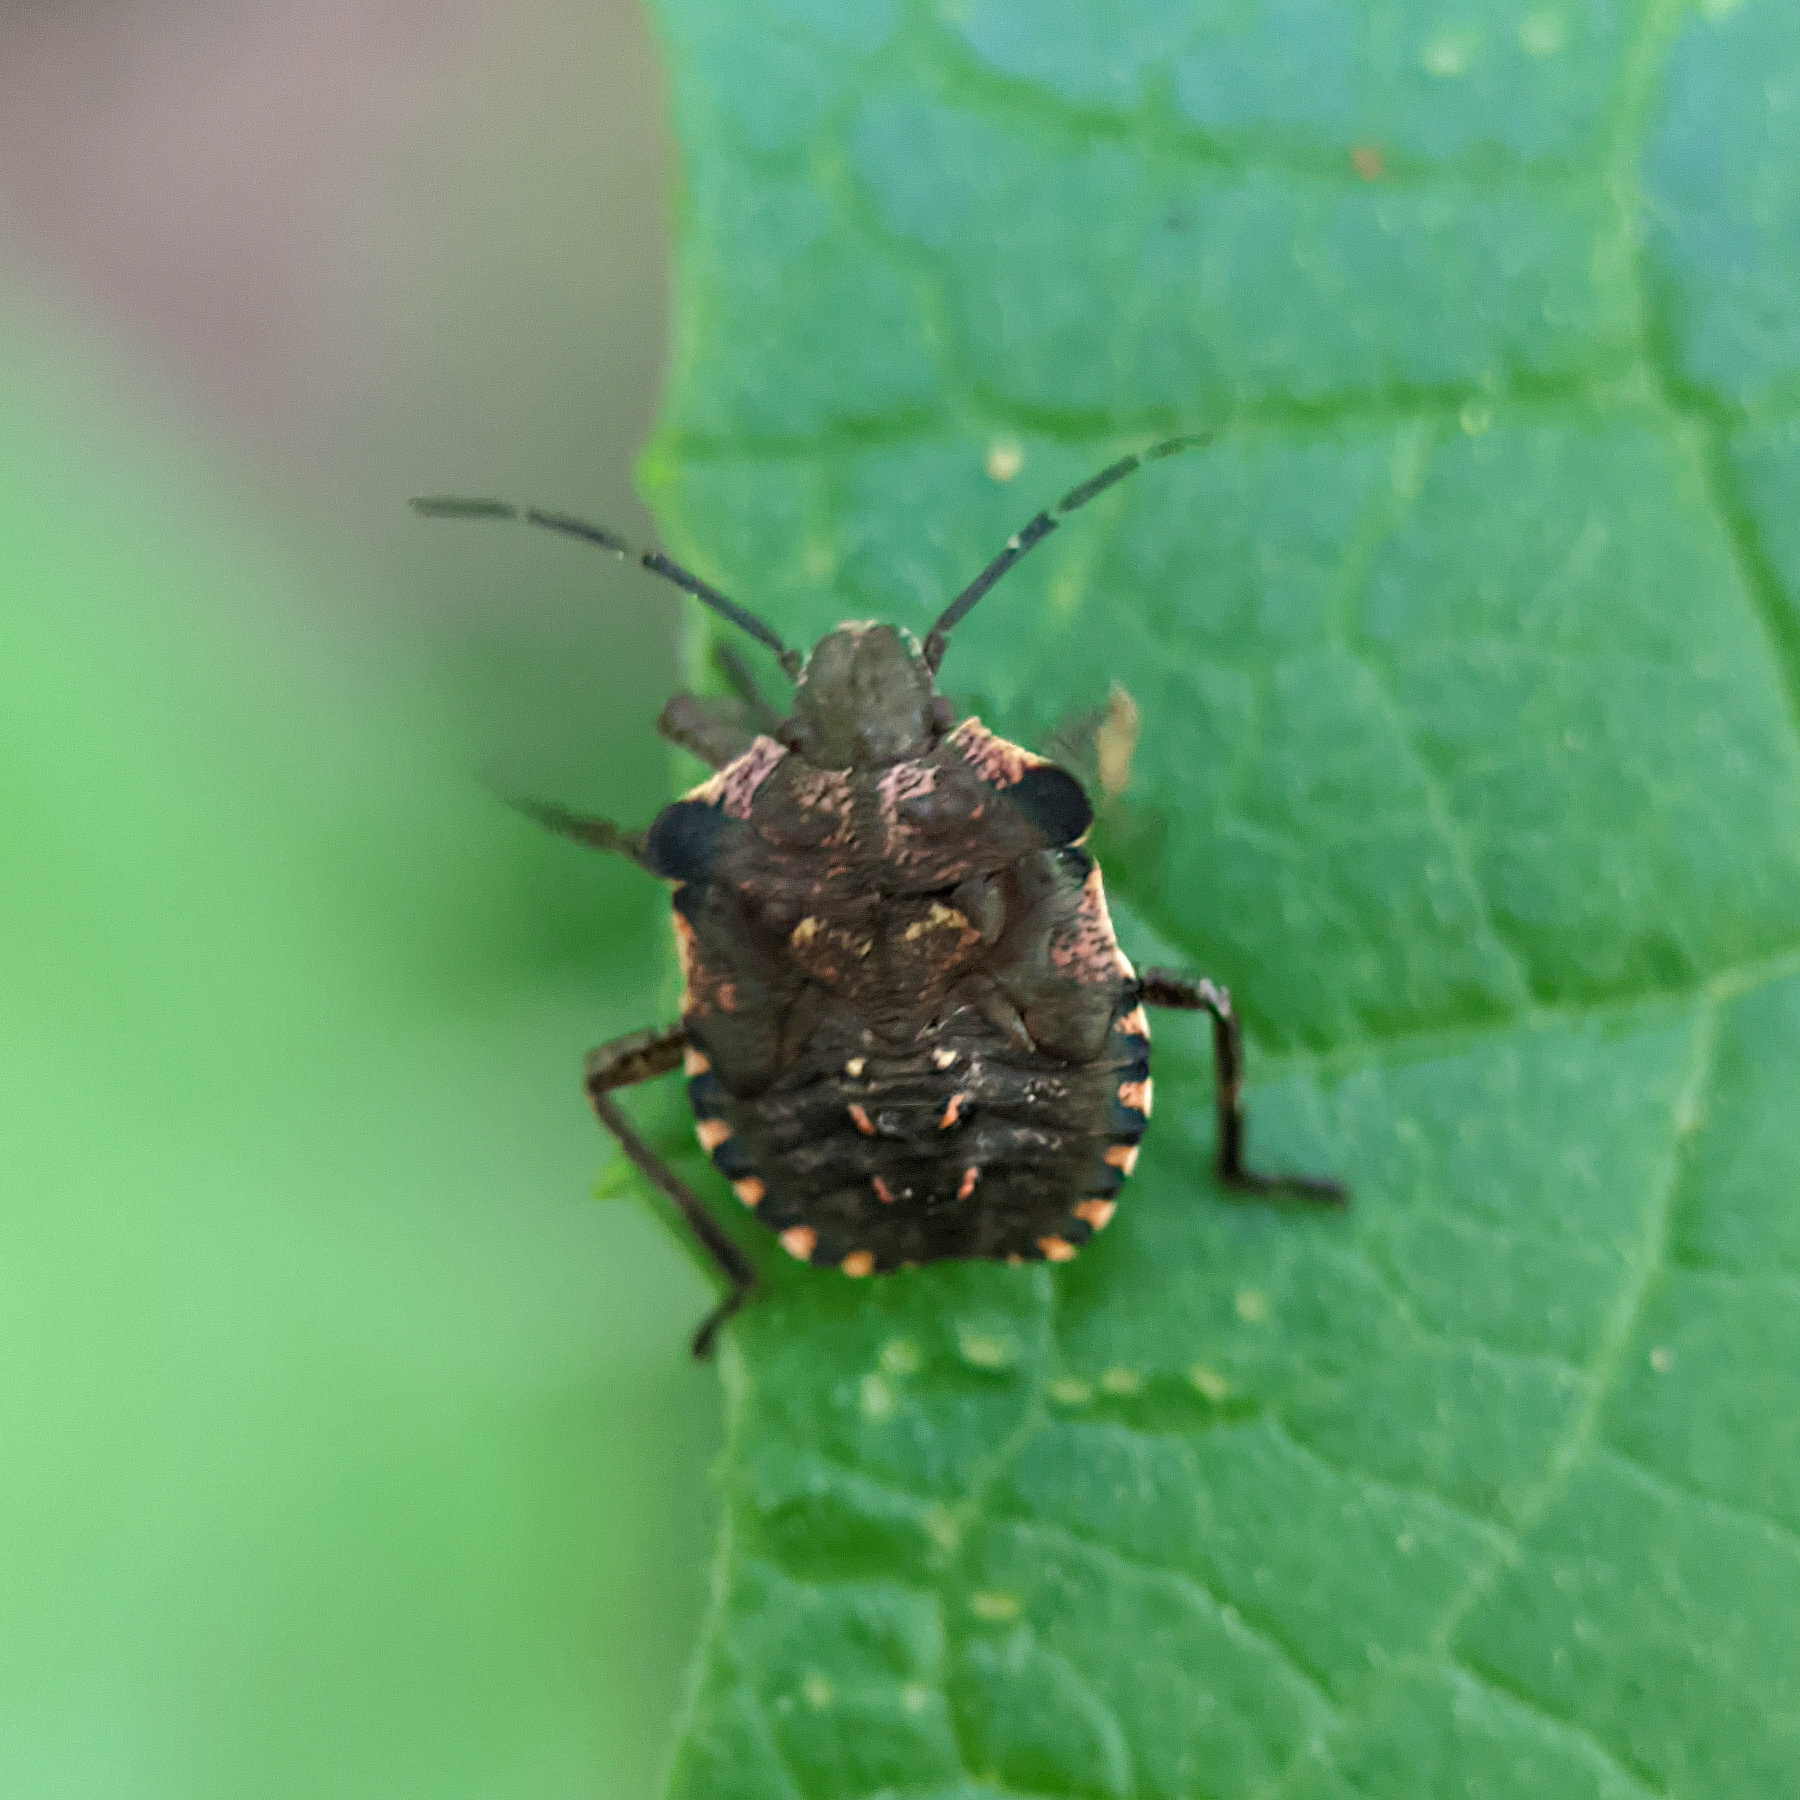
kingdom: Animalia
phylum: Arthropoda
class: Insecta
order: Hemiptera
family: Pentatomidae
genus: Pentatoma
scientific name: Pentatoma rufipes
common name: Forest bug
